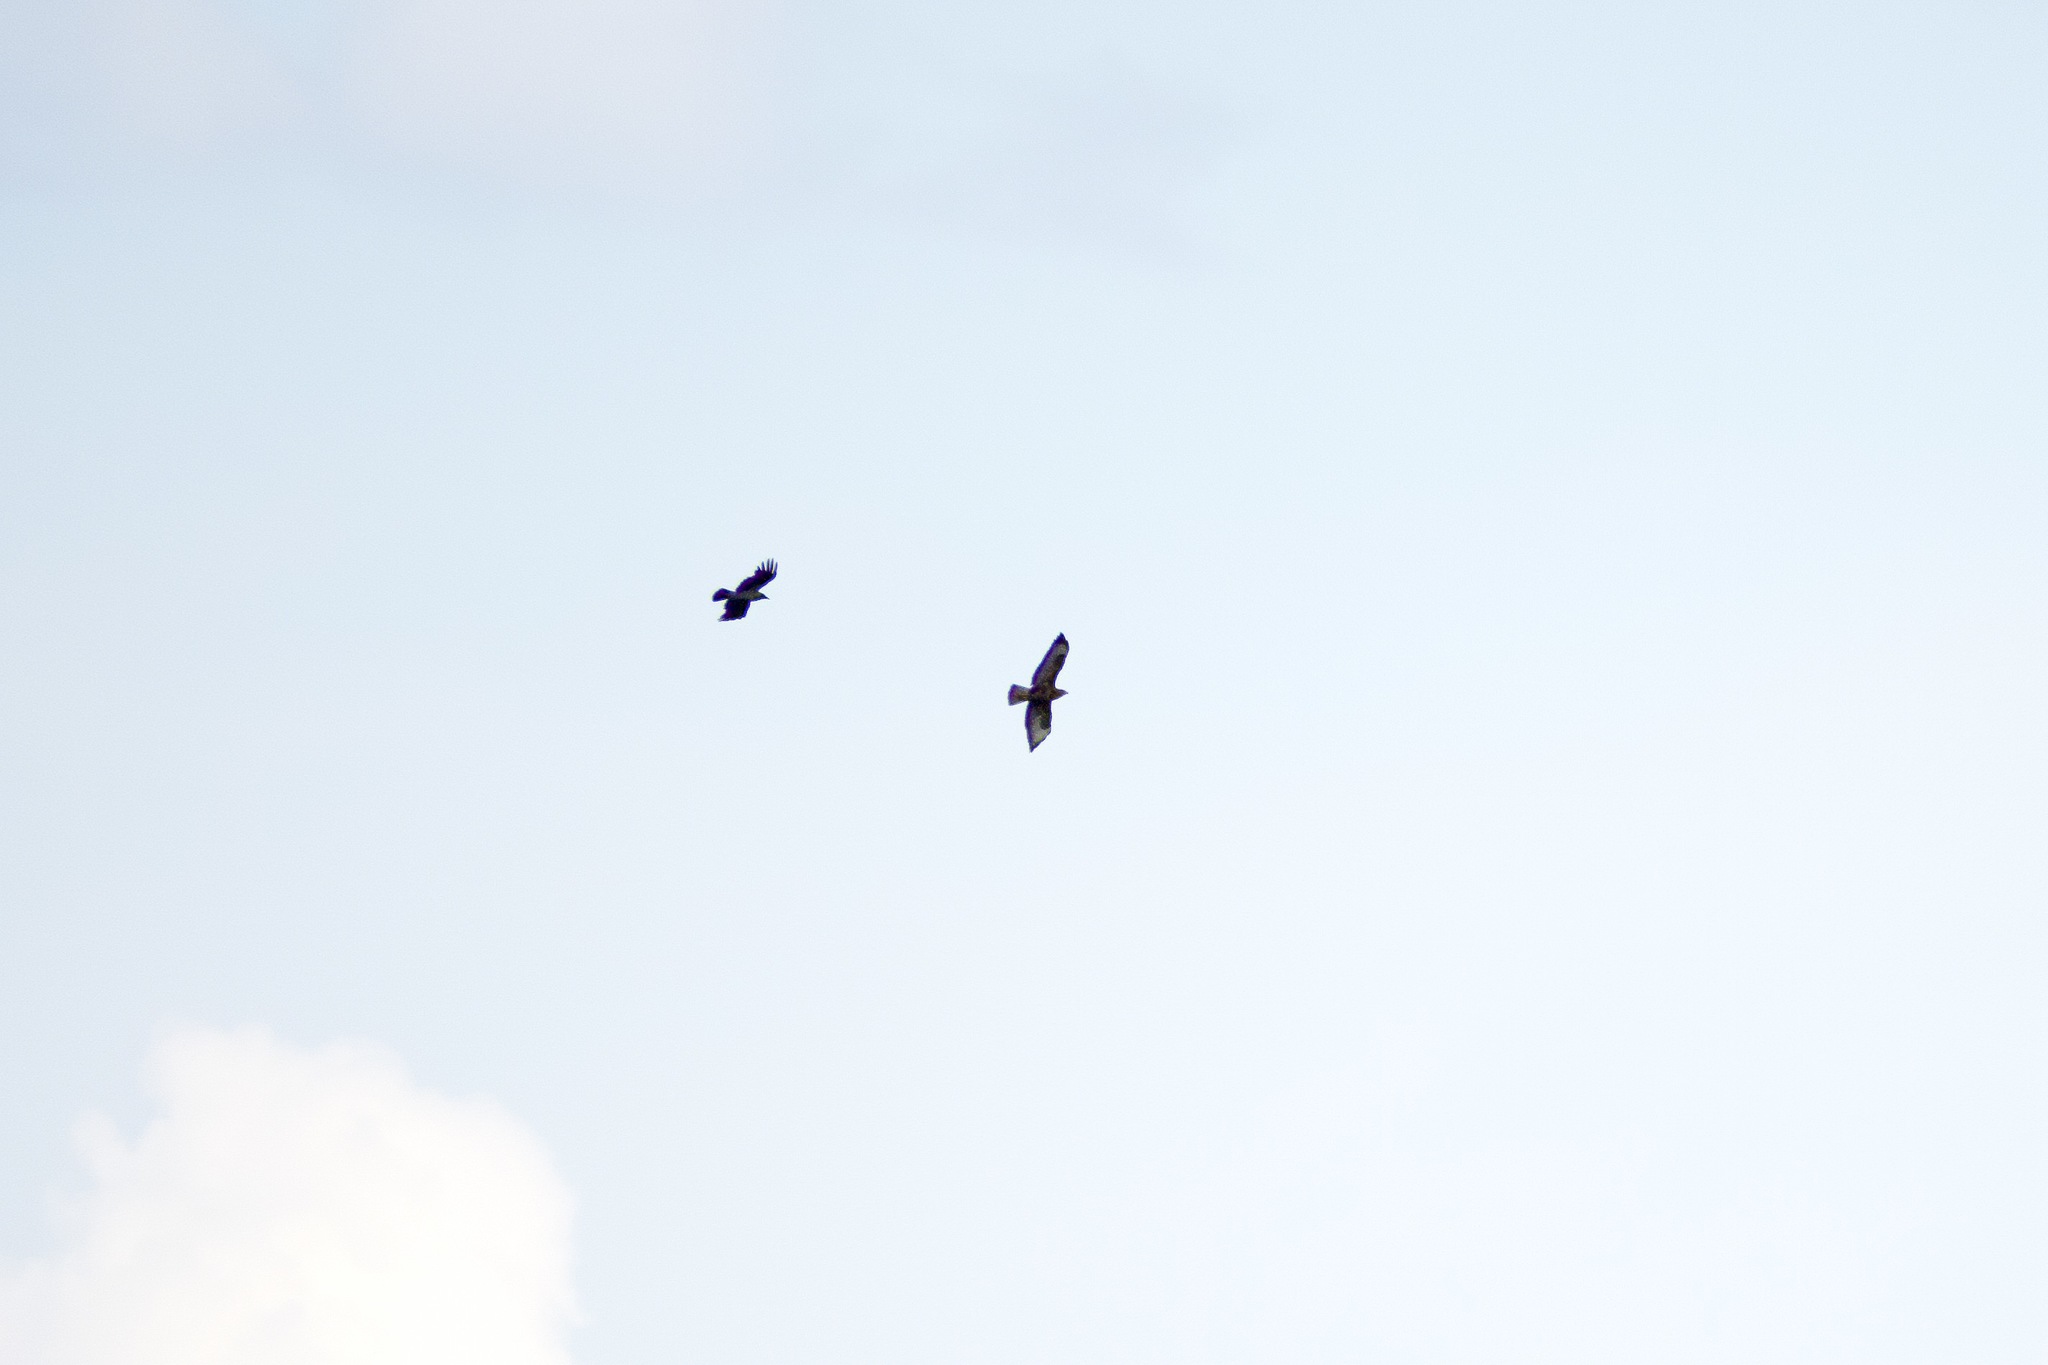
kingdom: Animalia
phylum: Chordata
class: Aves
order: Accipitriformes
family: Accipitridae
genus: Buteo
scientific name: Buteo buteo
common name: Common buzzard
